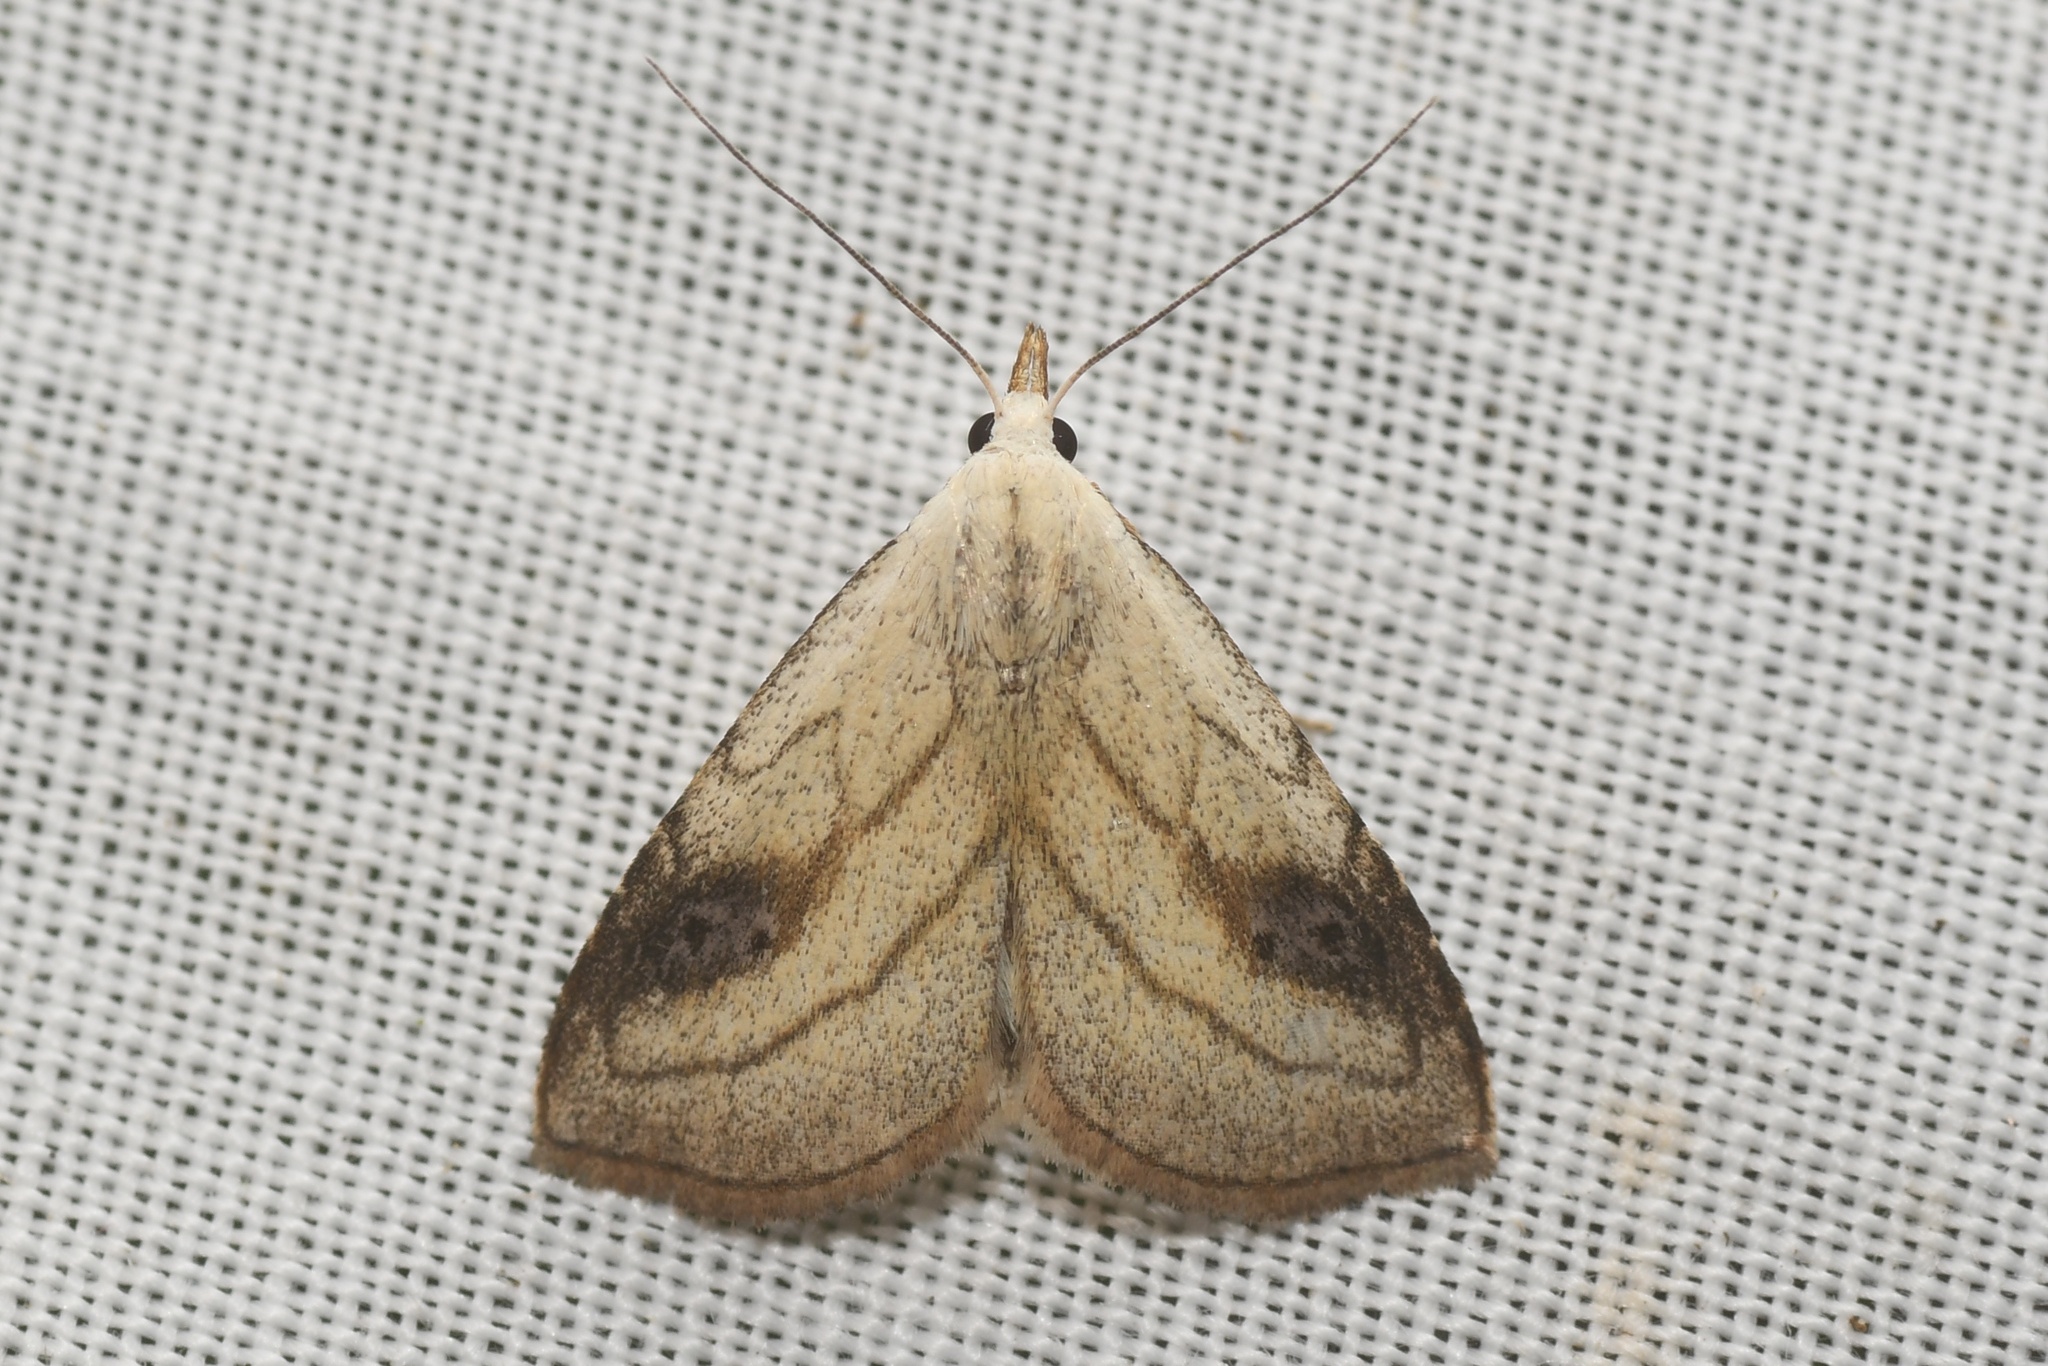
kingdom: Animalia
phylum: Arthropoda
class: Insecta
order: Lepidoptera
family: Erebidae
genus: Rivula
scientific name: Rivula propinqualis
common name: Spotted grass moth
